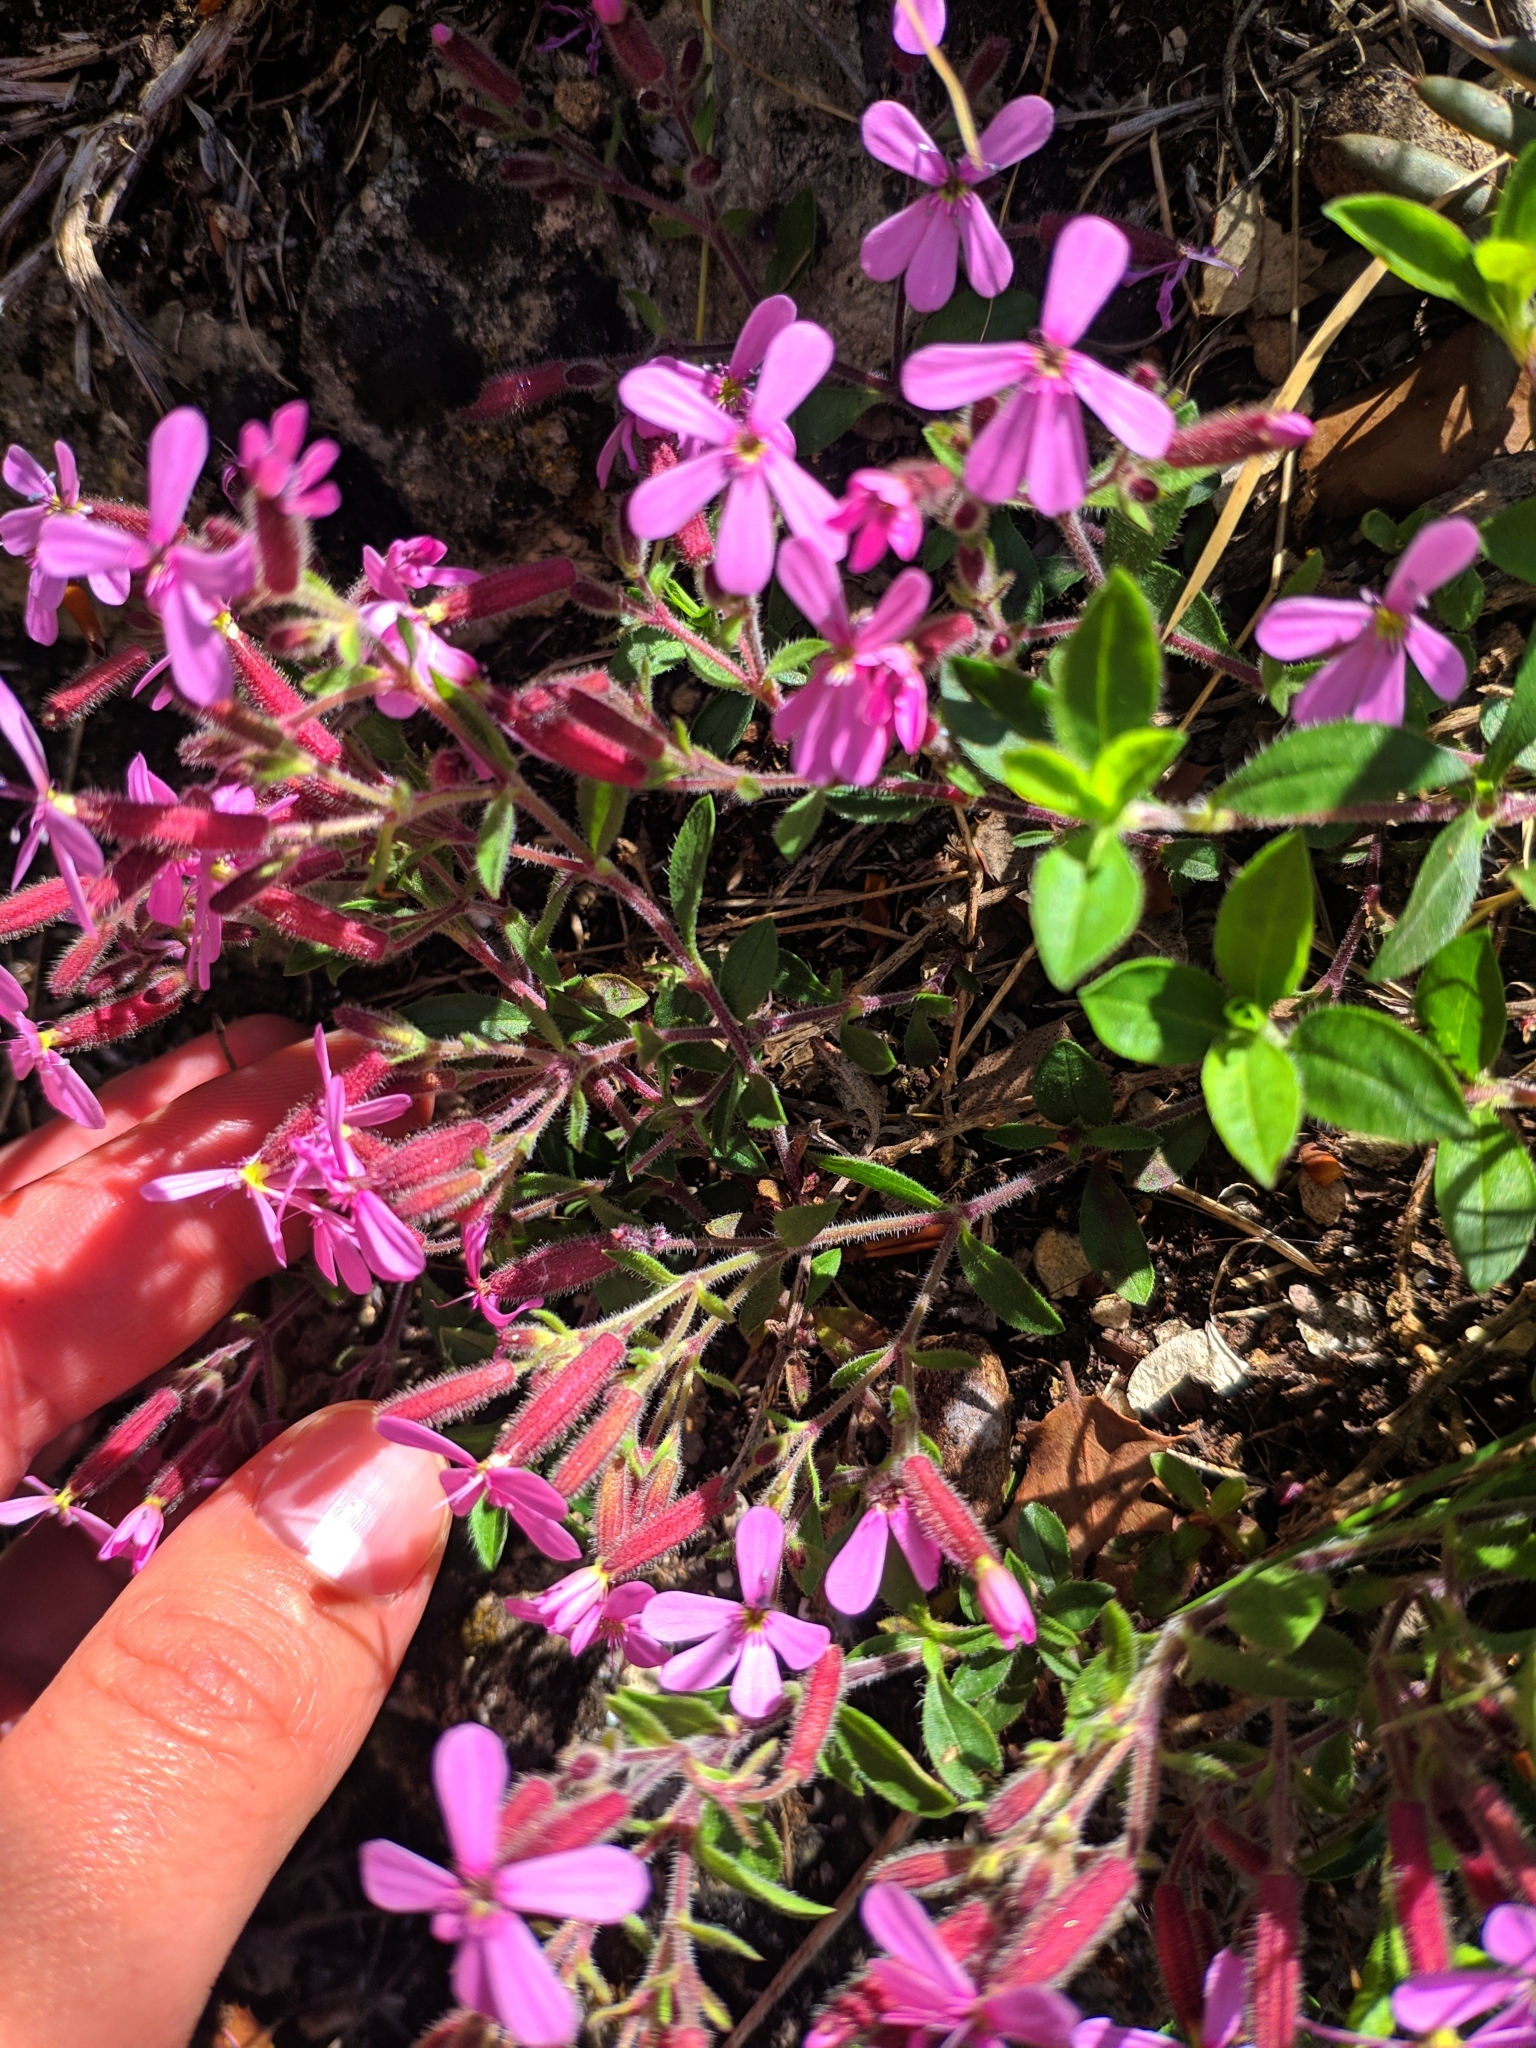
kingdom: Plantae
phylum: Tracheophyta
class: Magnoliopsida
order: Caryophyllales
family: Caryophyllaceae
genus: Saponaria
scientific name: Saponaria ocymoides
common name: Rock soapwort
